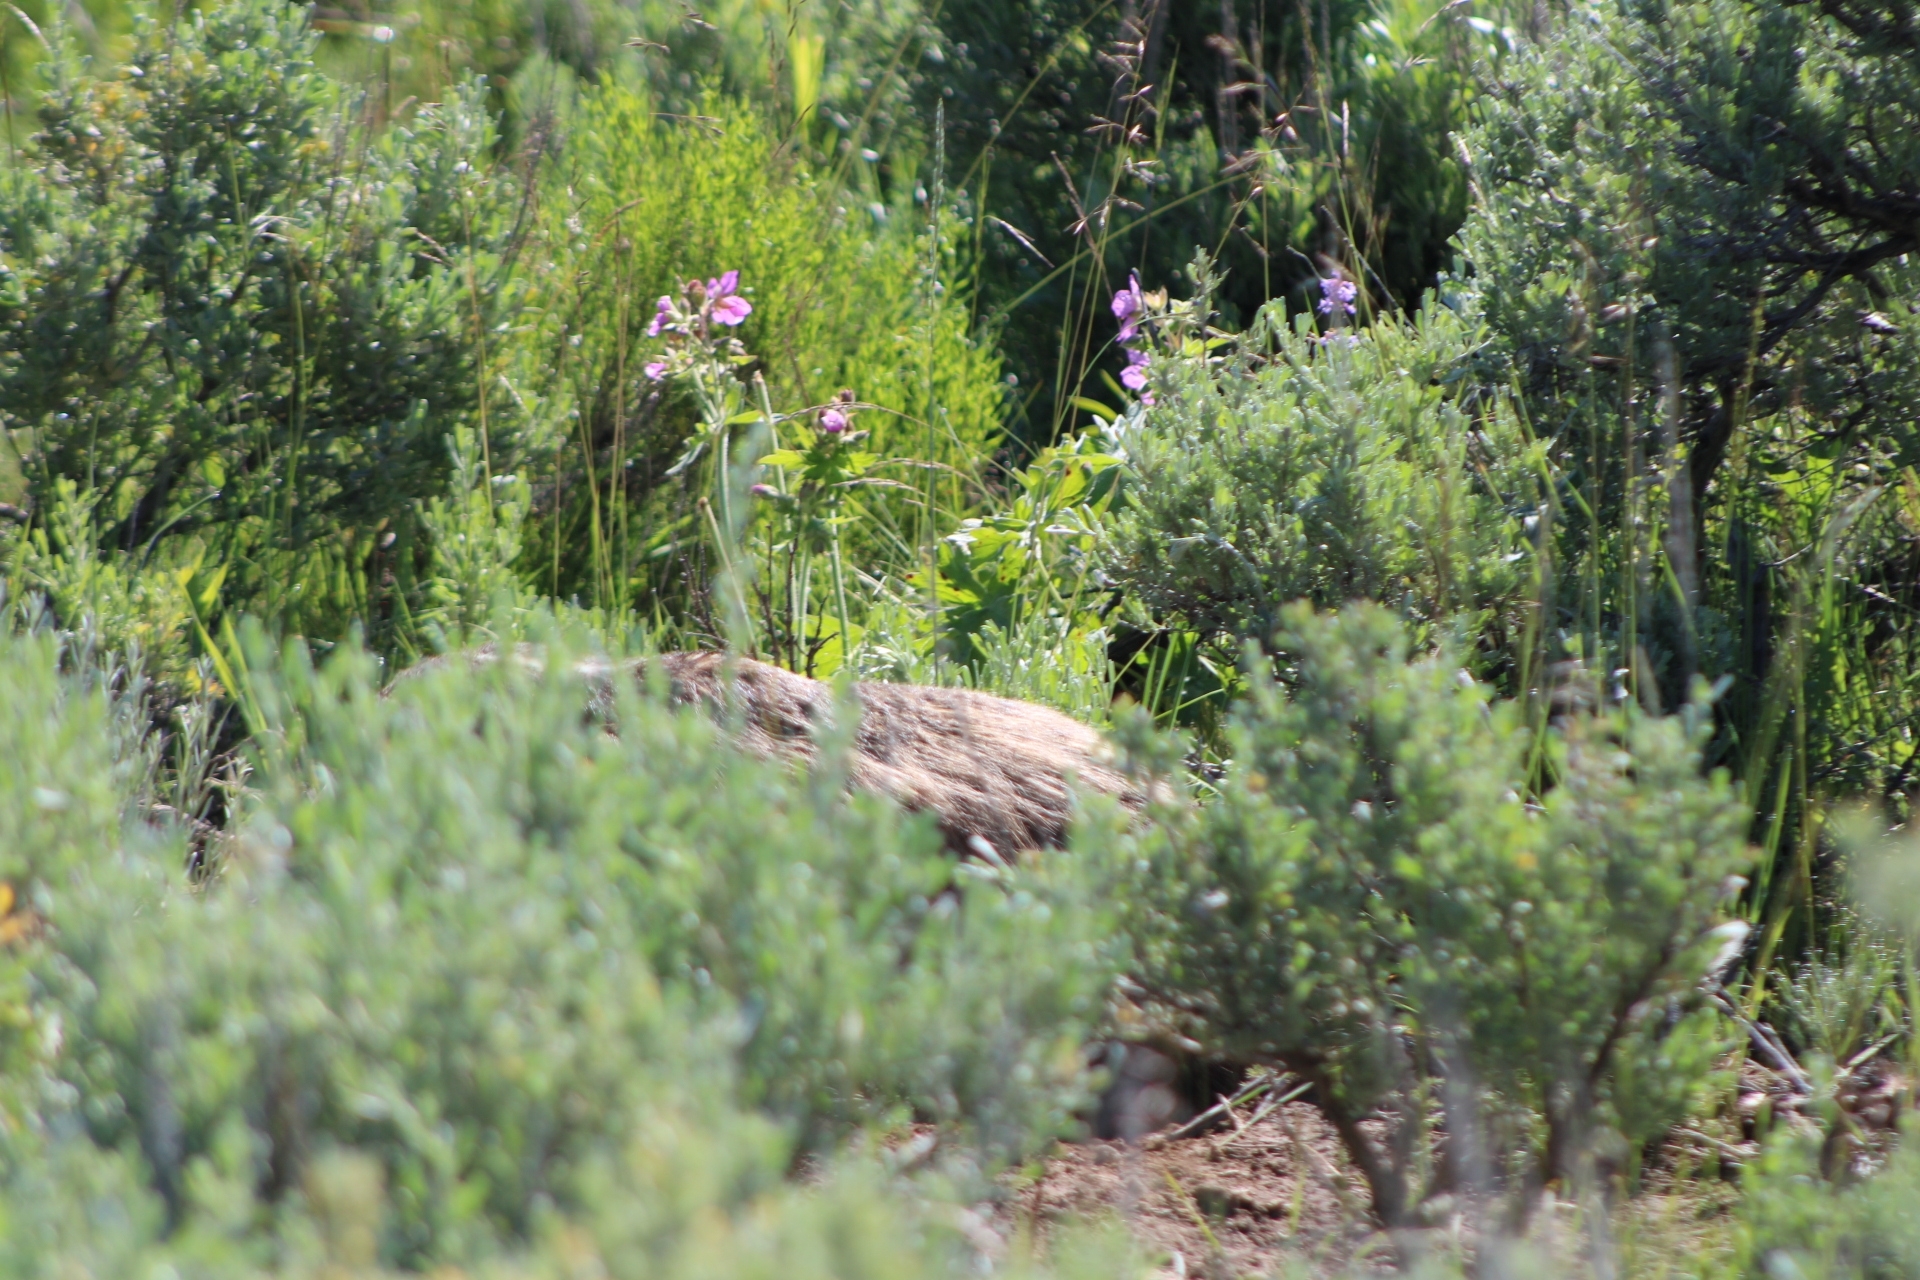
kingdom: Animalia
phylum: Chordata
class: Mammalia
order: Carnivora
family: Mustelidae
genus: Taxidea
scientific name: Taxidea taxus
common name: American badger
